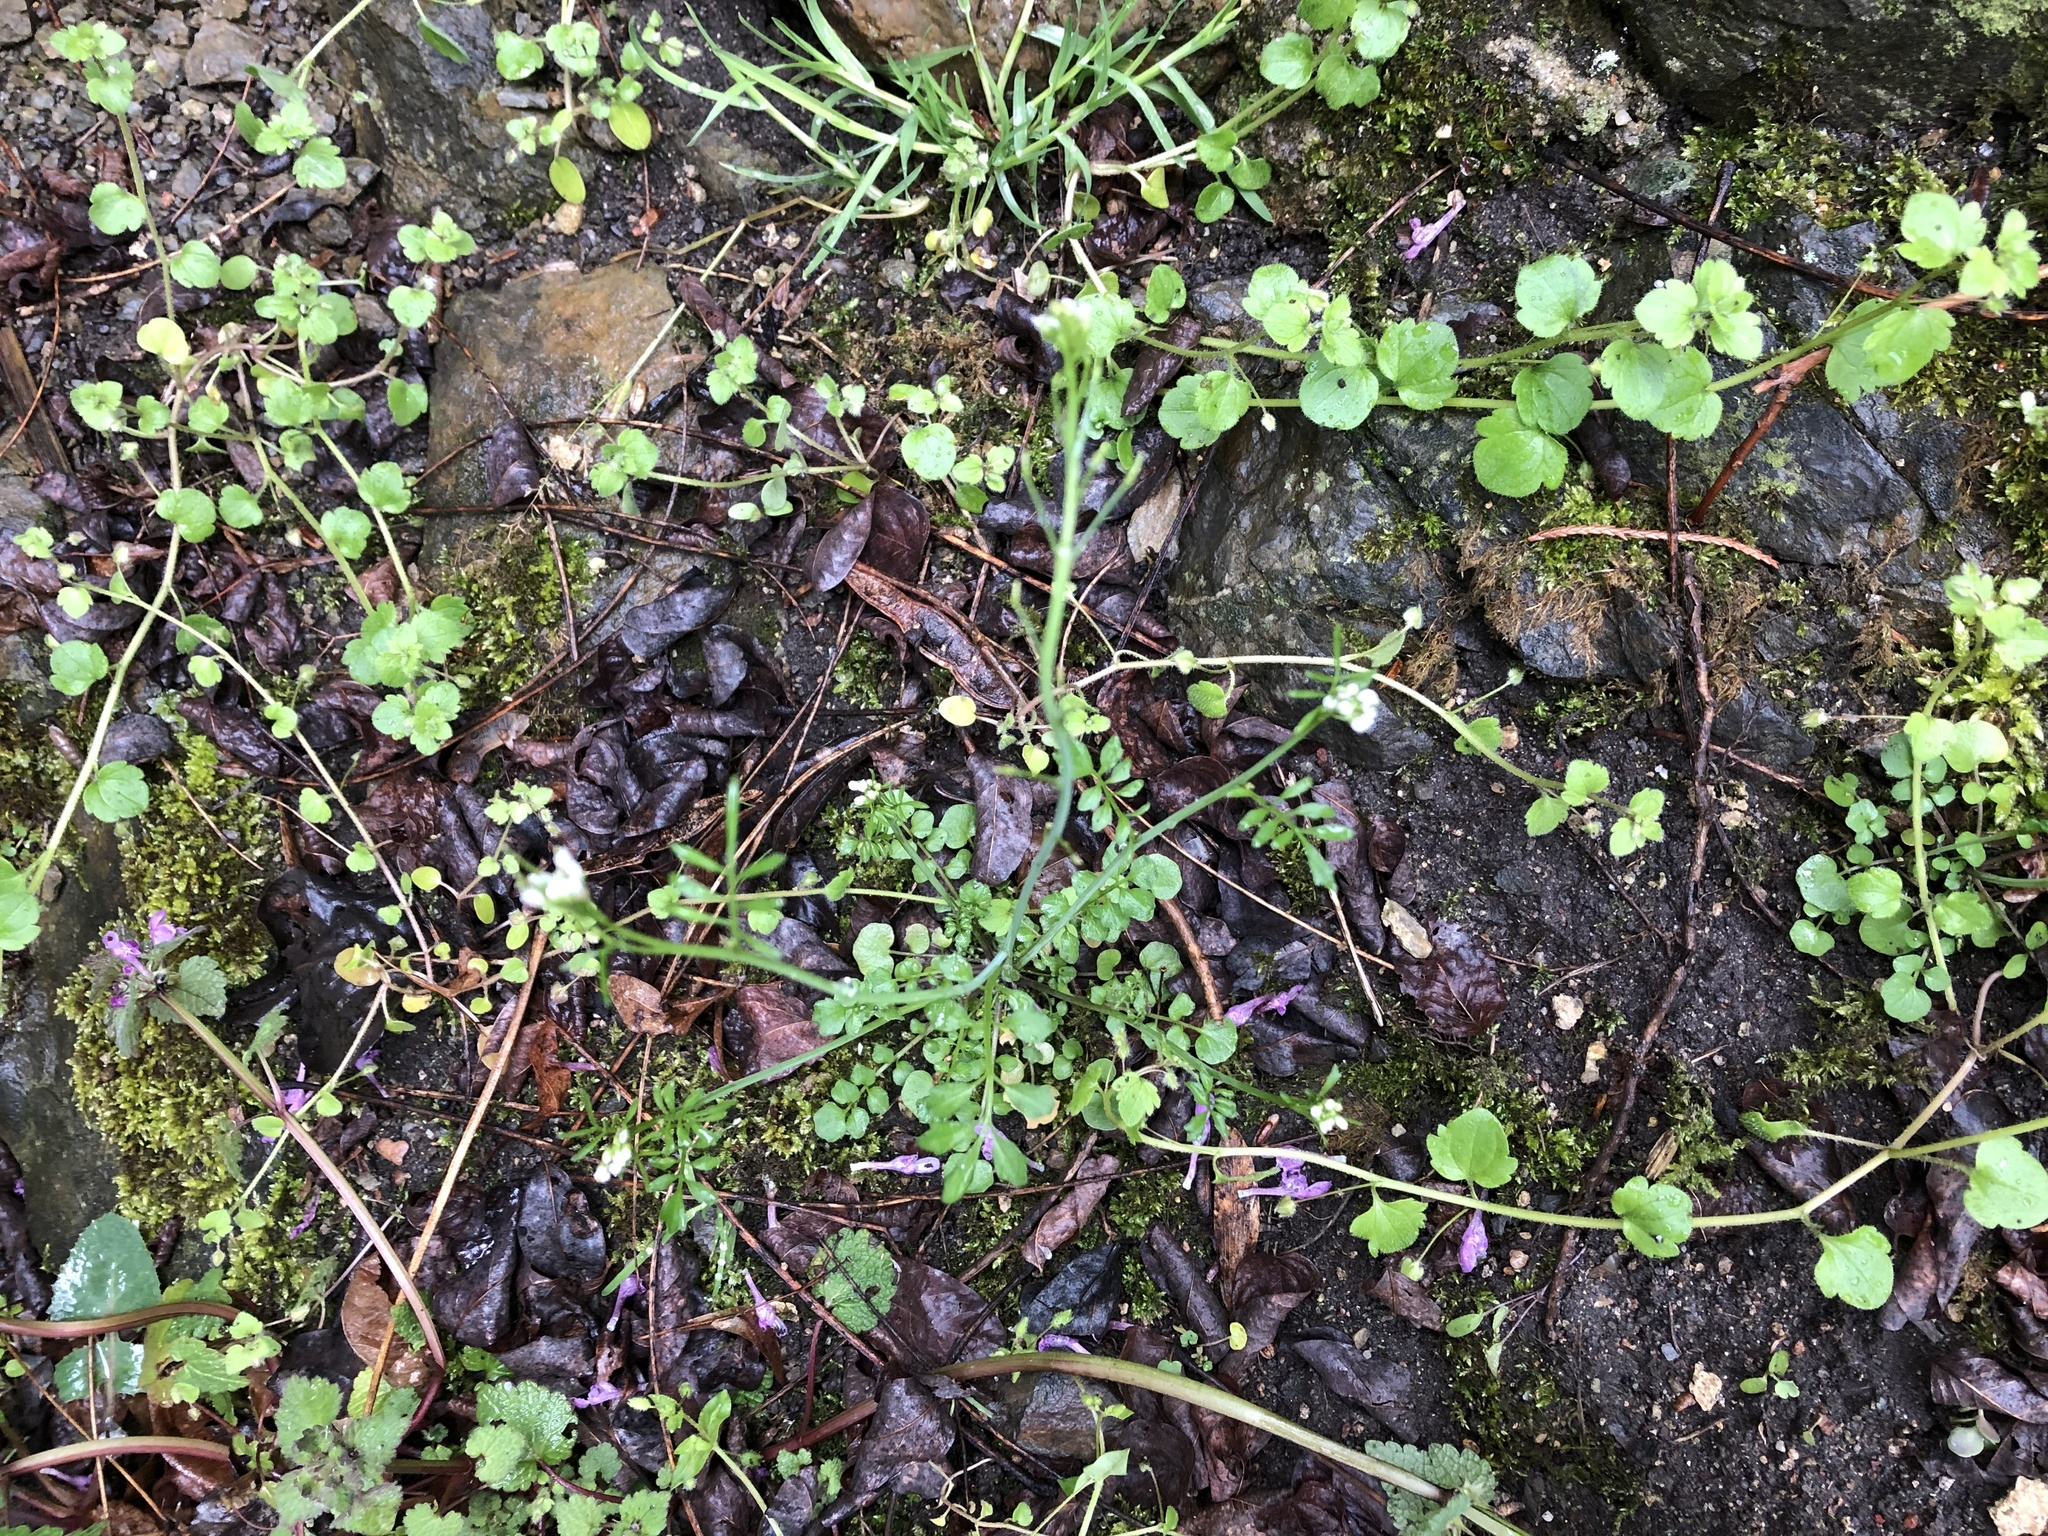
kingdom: Plantae
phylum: Tracheophyta
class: Magnoliopsida
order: Brassicales
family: Brassicaceae
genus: Cardamine
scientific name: Cardamine hirsuta
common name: Hairy bittercress
